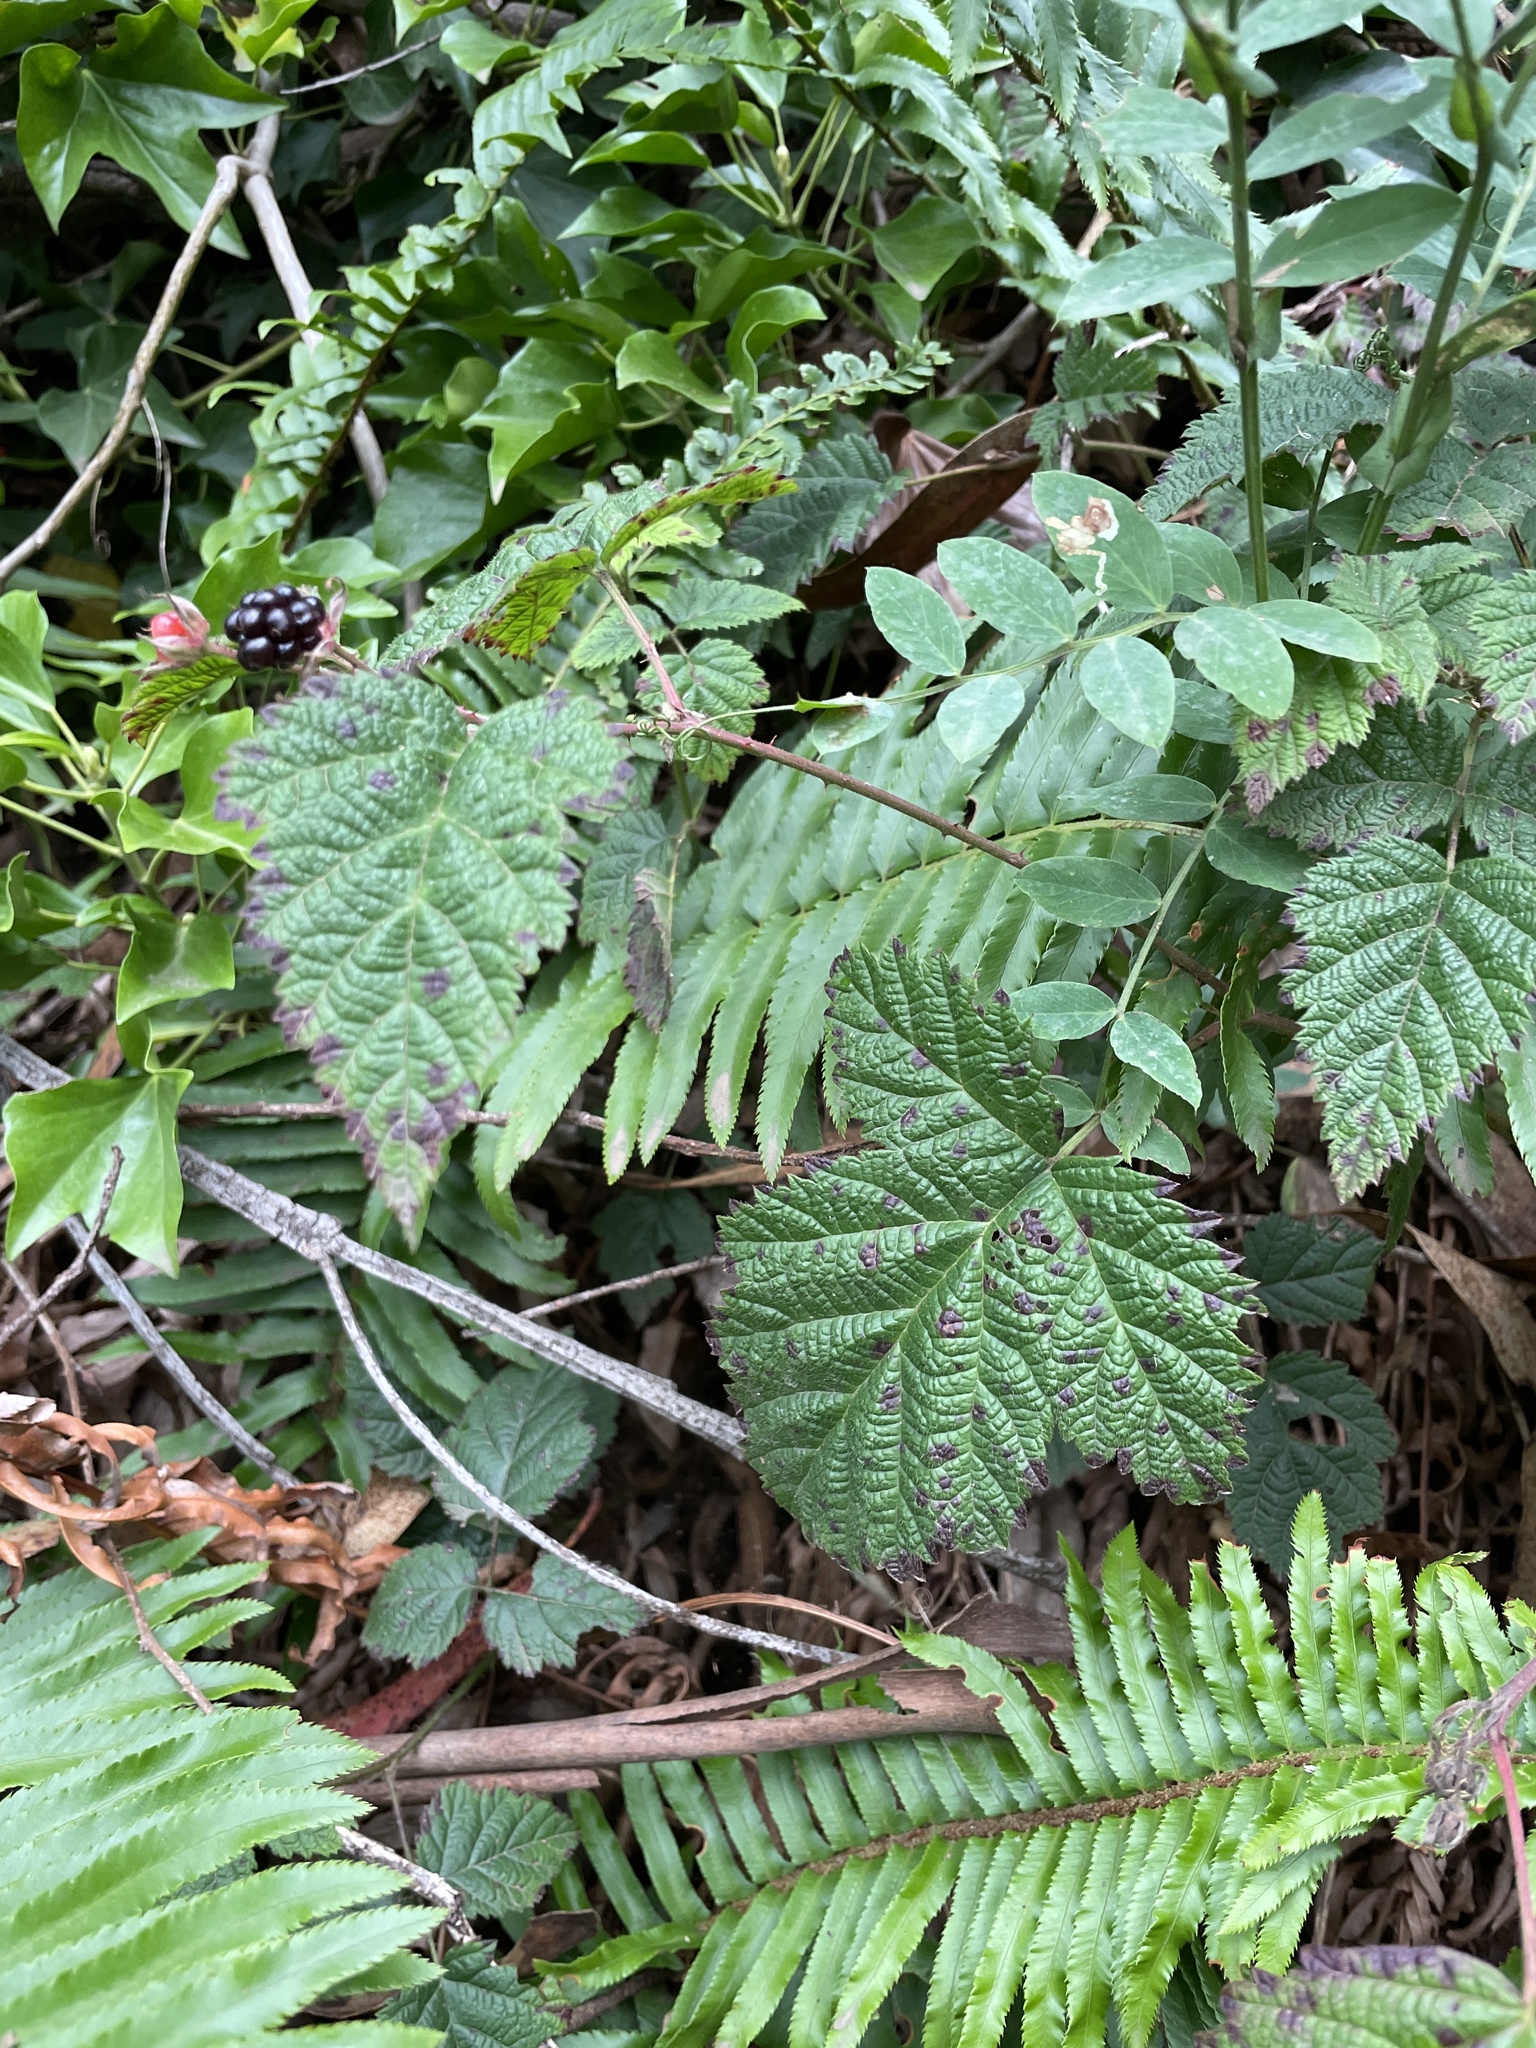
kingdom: Plantae
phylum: Tracheophyta
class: Magnoliopsida
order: Rosales
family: Rosaceae
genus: Rubus
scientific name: Rubus ursinus
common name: Pacific blackberry
